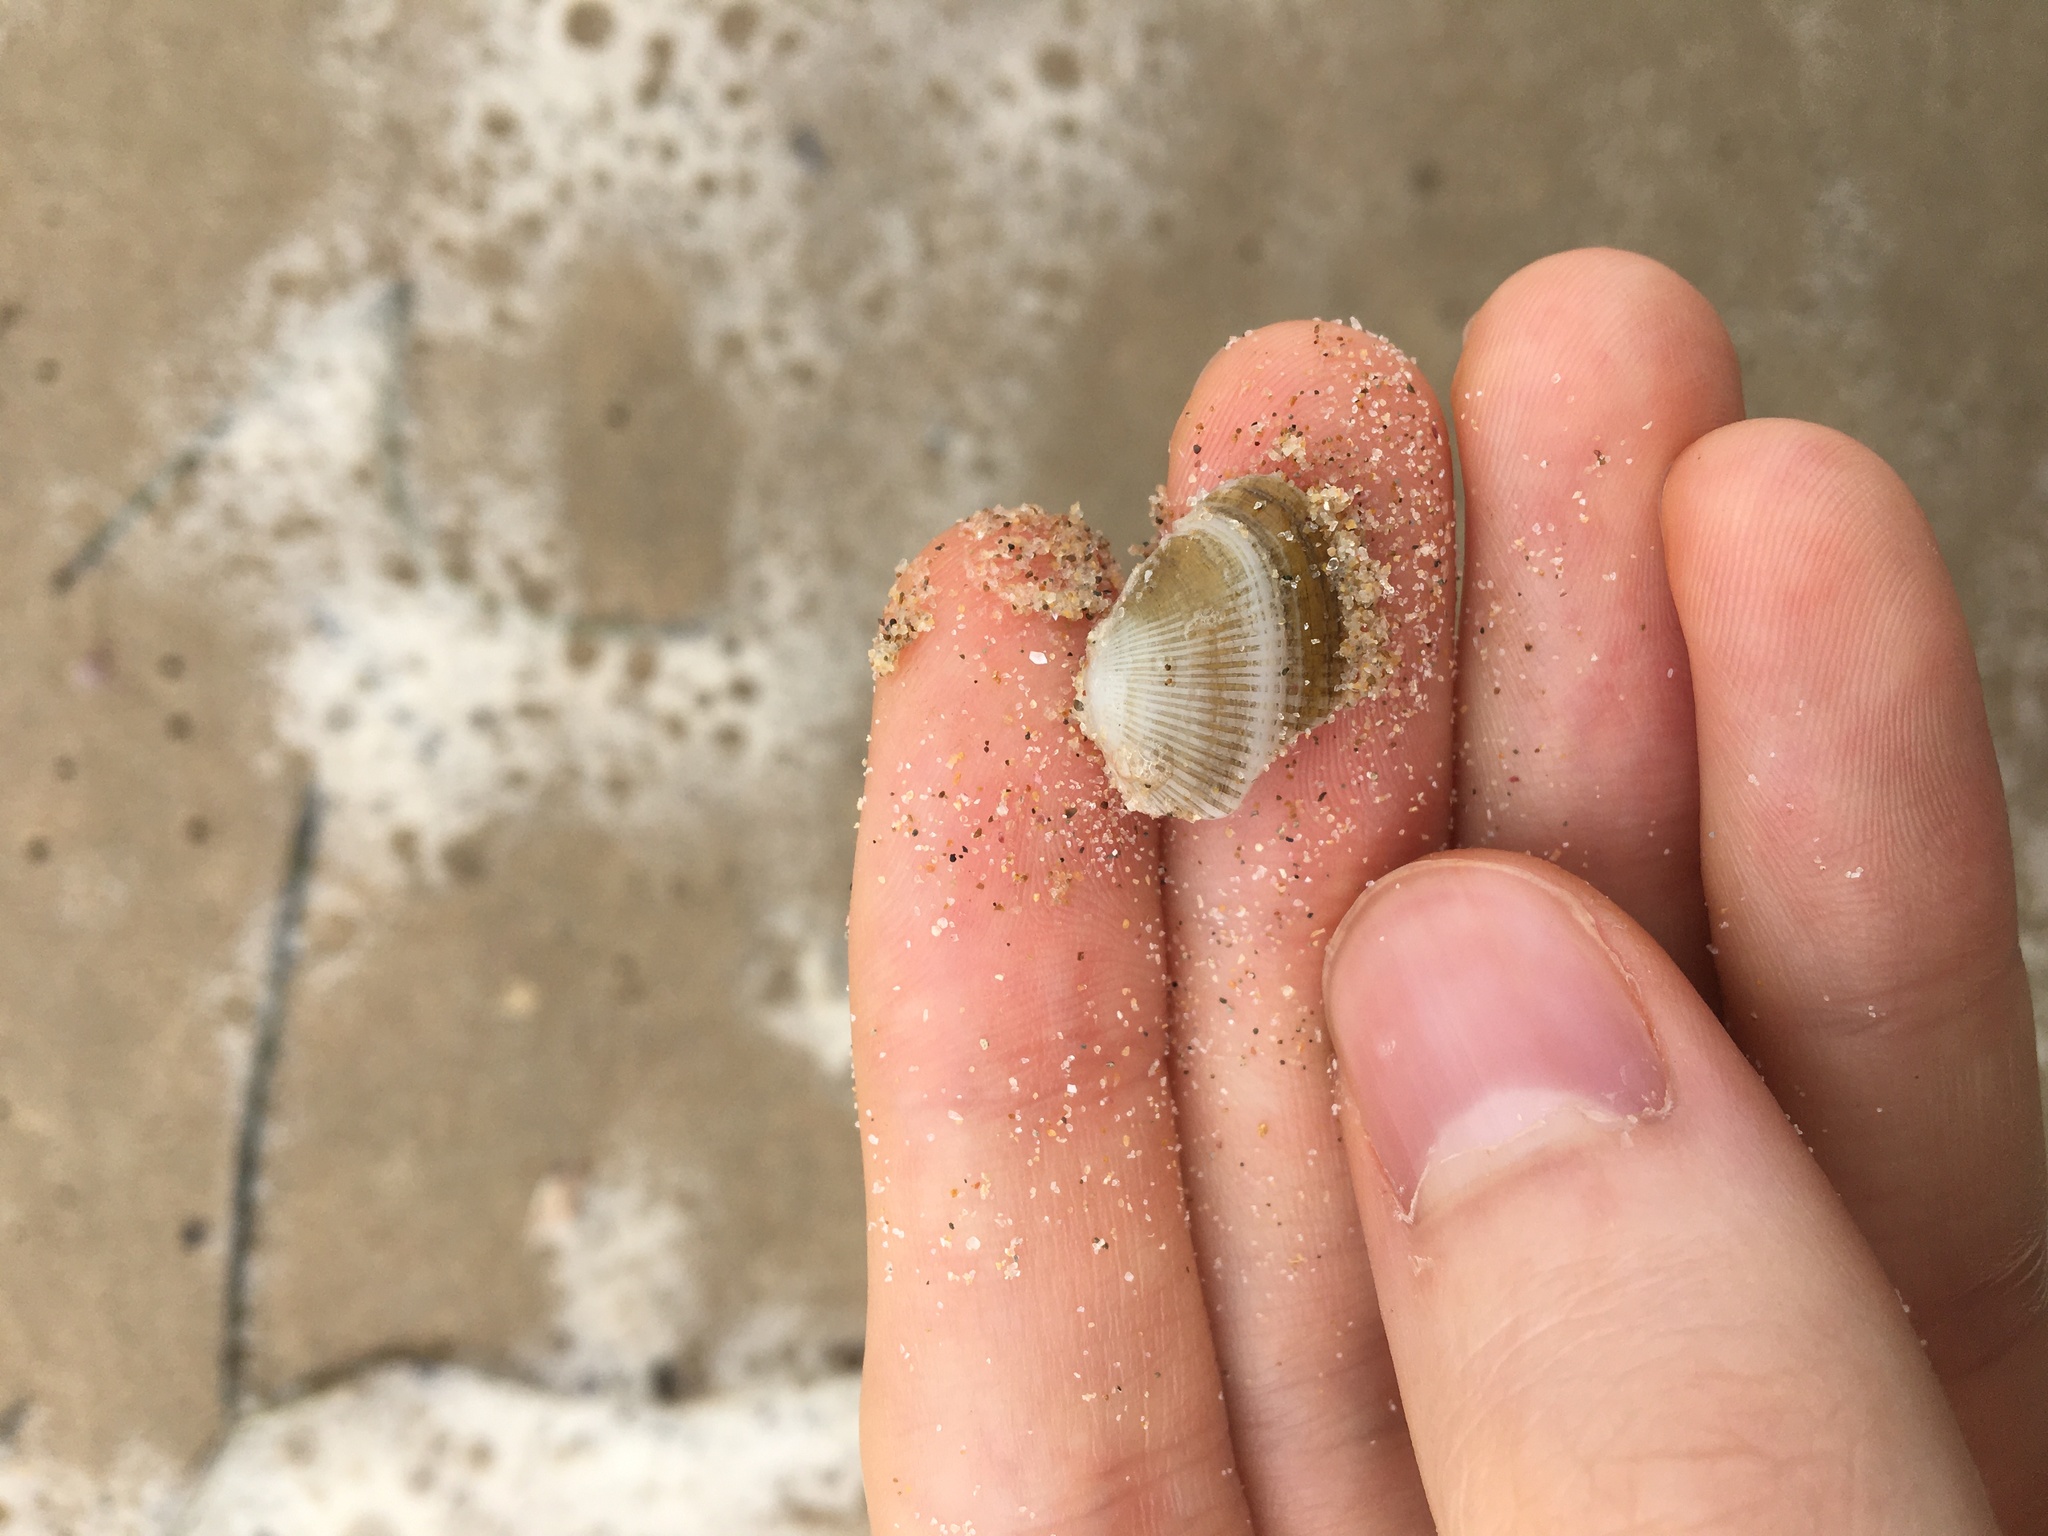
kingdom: Animalia
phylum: Mollusca
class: Bivalvia
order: Venerida
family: Hemidonacidae
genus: Hemidonax
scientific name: Hemidonax dactylus
